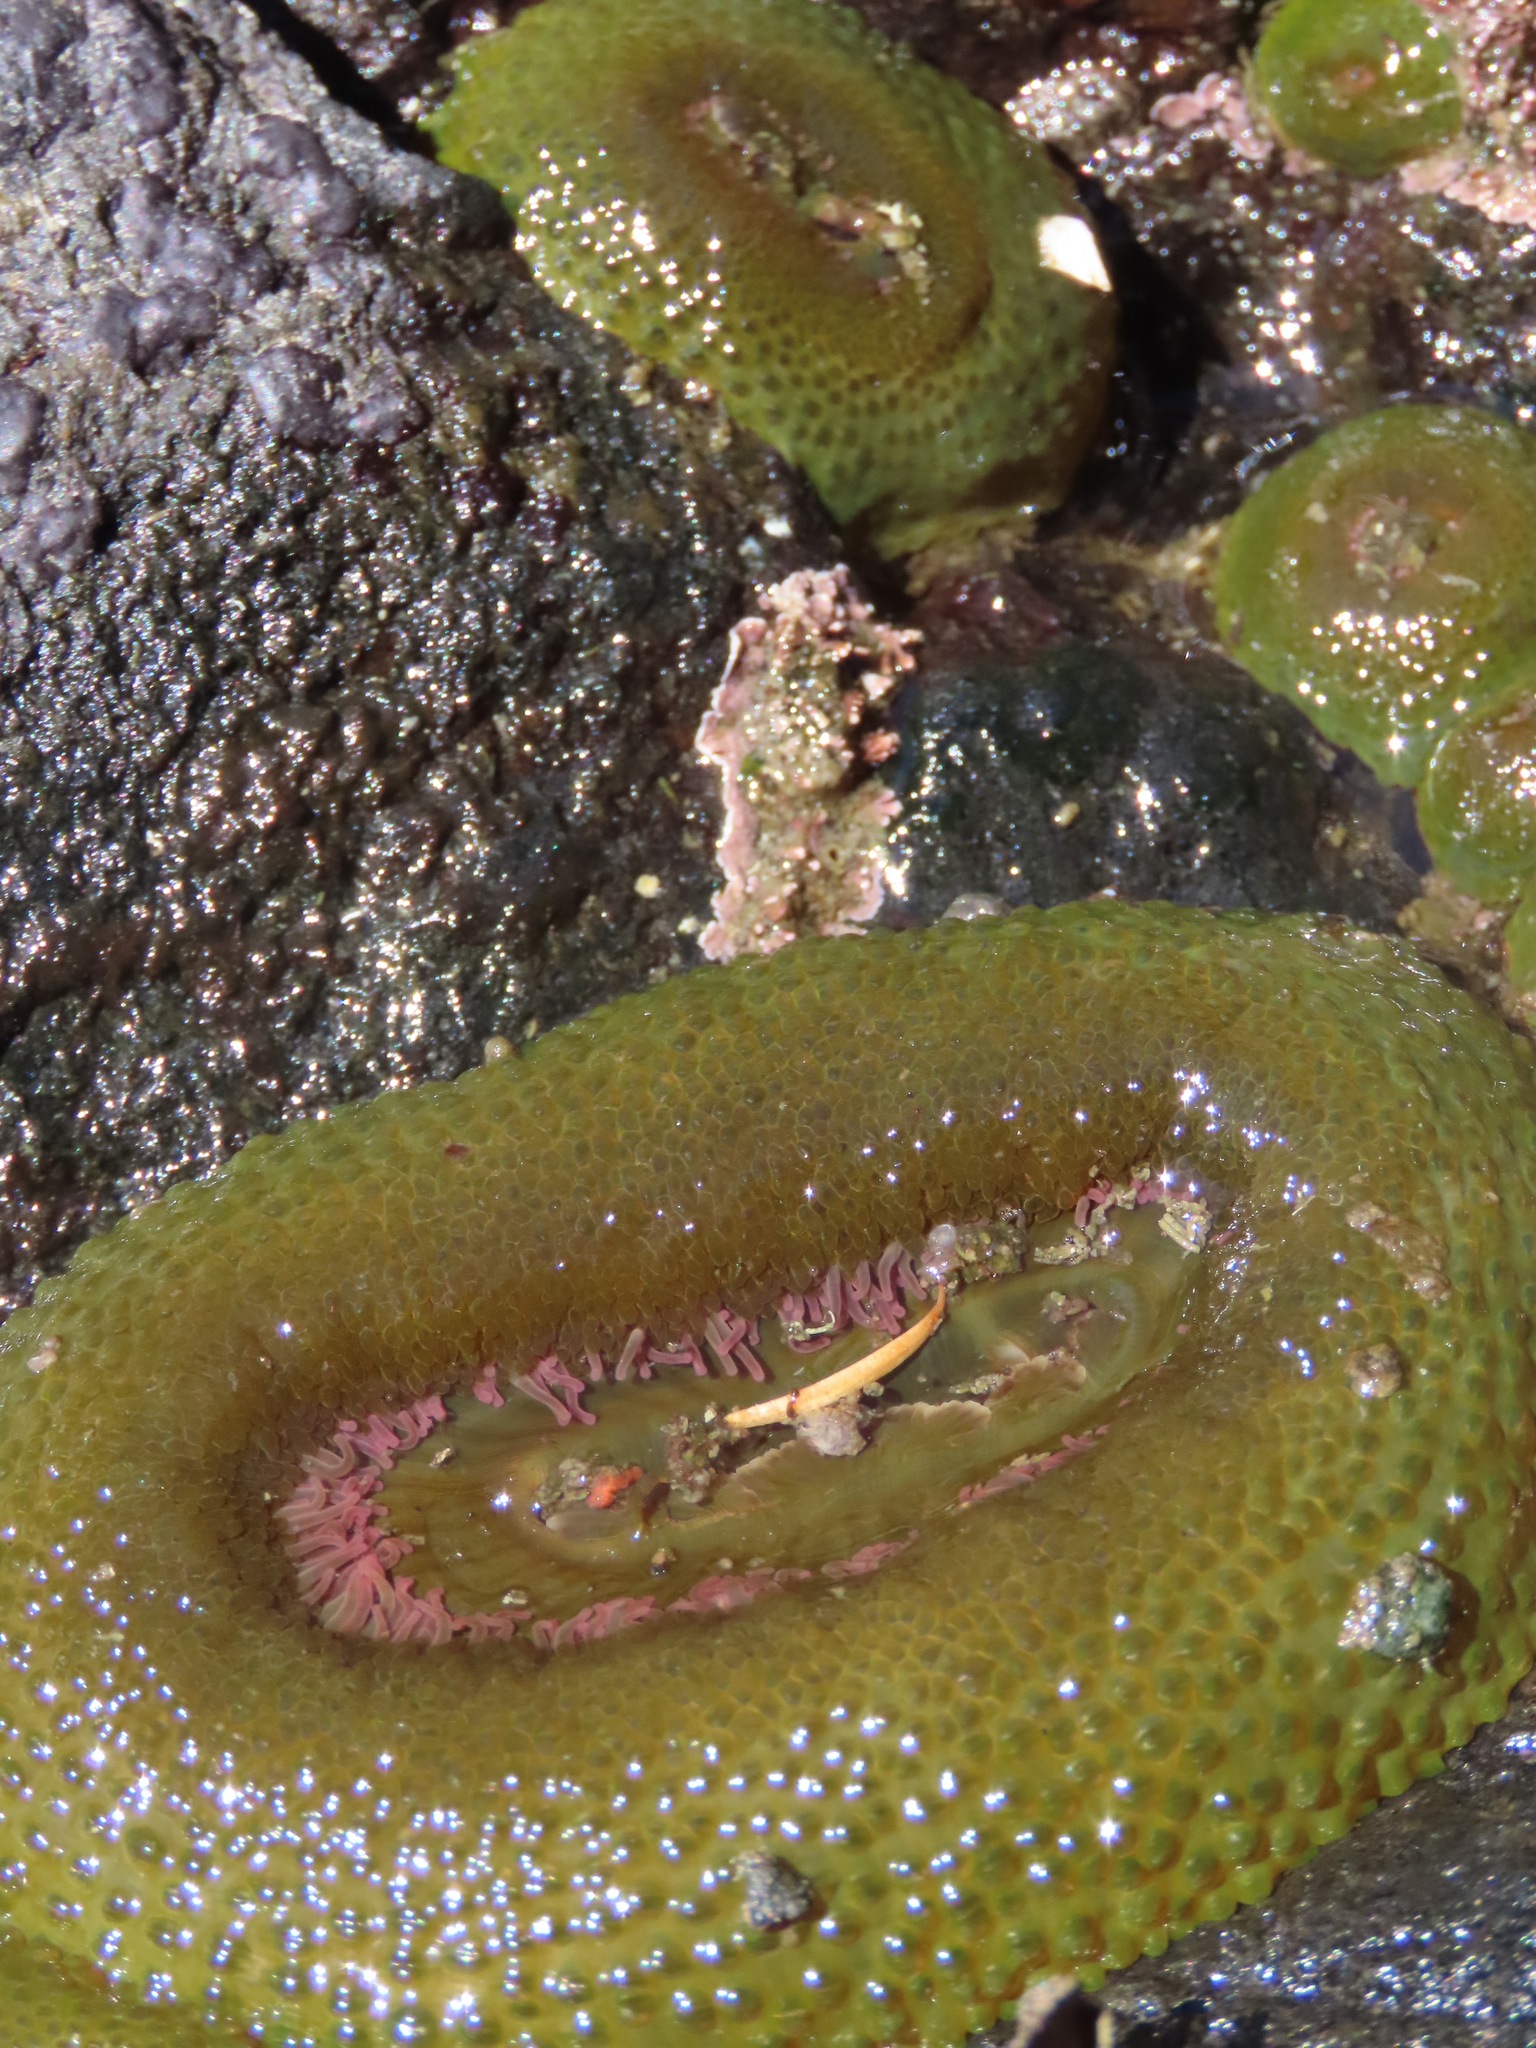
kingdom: Animalia
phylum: Cnidaria
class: Anthozoa
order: Actiniaria
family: Actiniidae
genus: Anthopleura
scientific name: Anthopleura elegantissima
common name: Clonal anemone
